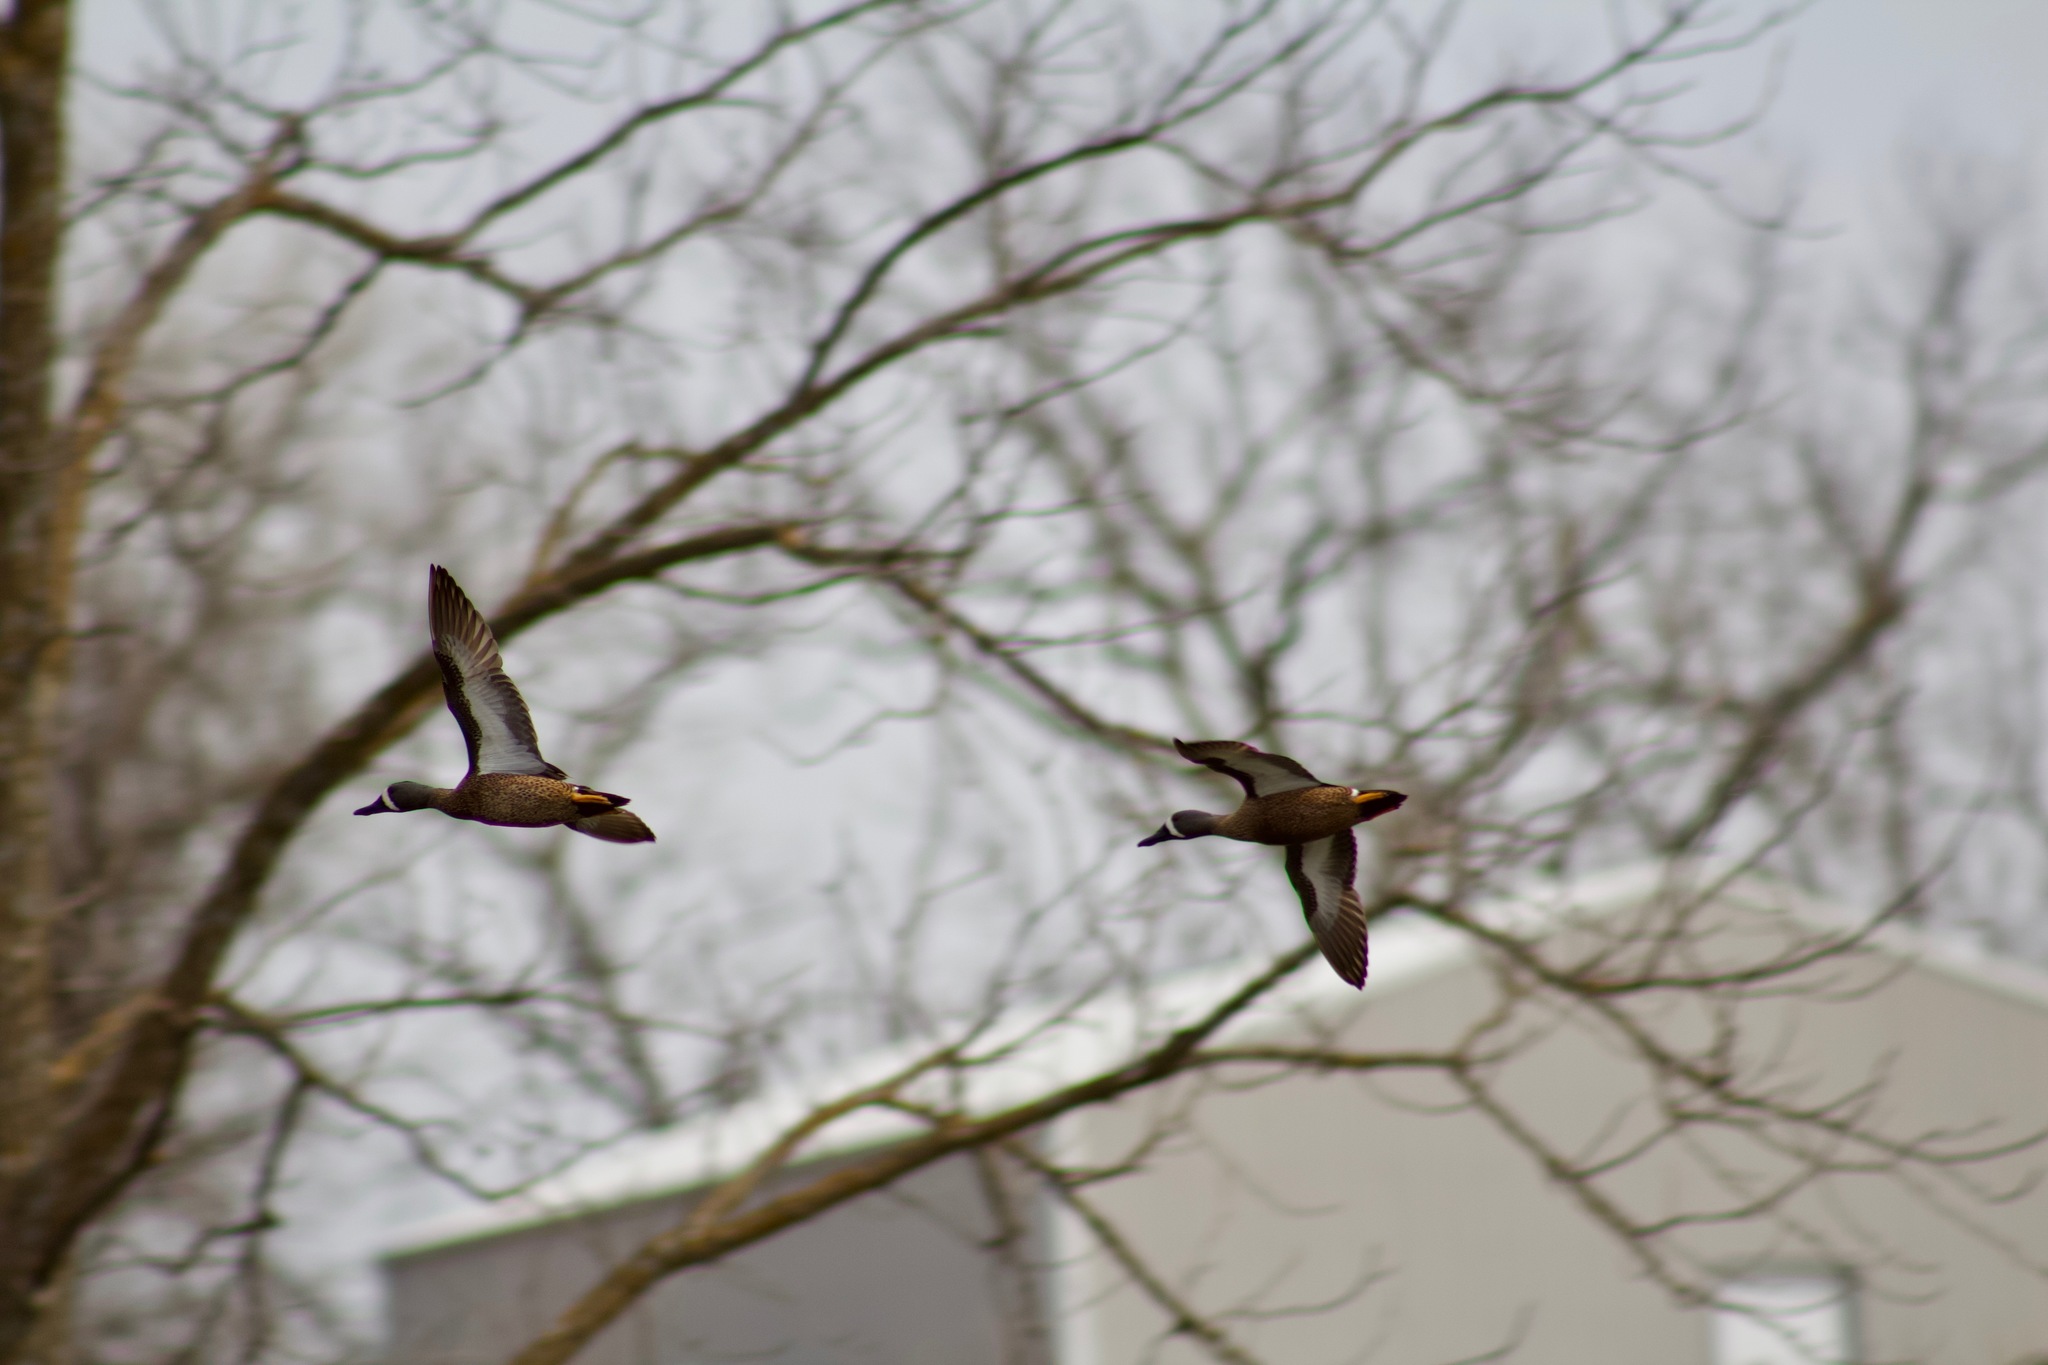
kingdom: Animalia
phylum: Chordata
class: Aves
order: Anseriformes
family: Anatidae
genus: Spatula
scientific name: Spatula discors
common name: Blue-winged teal
